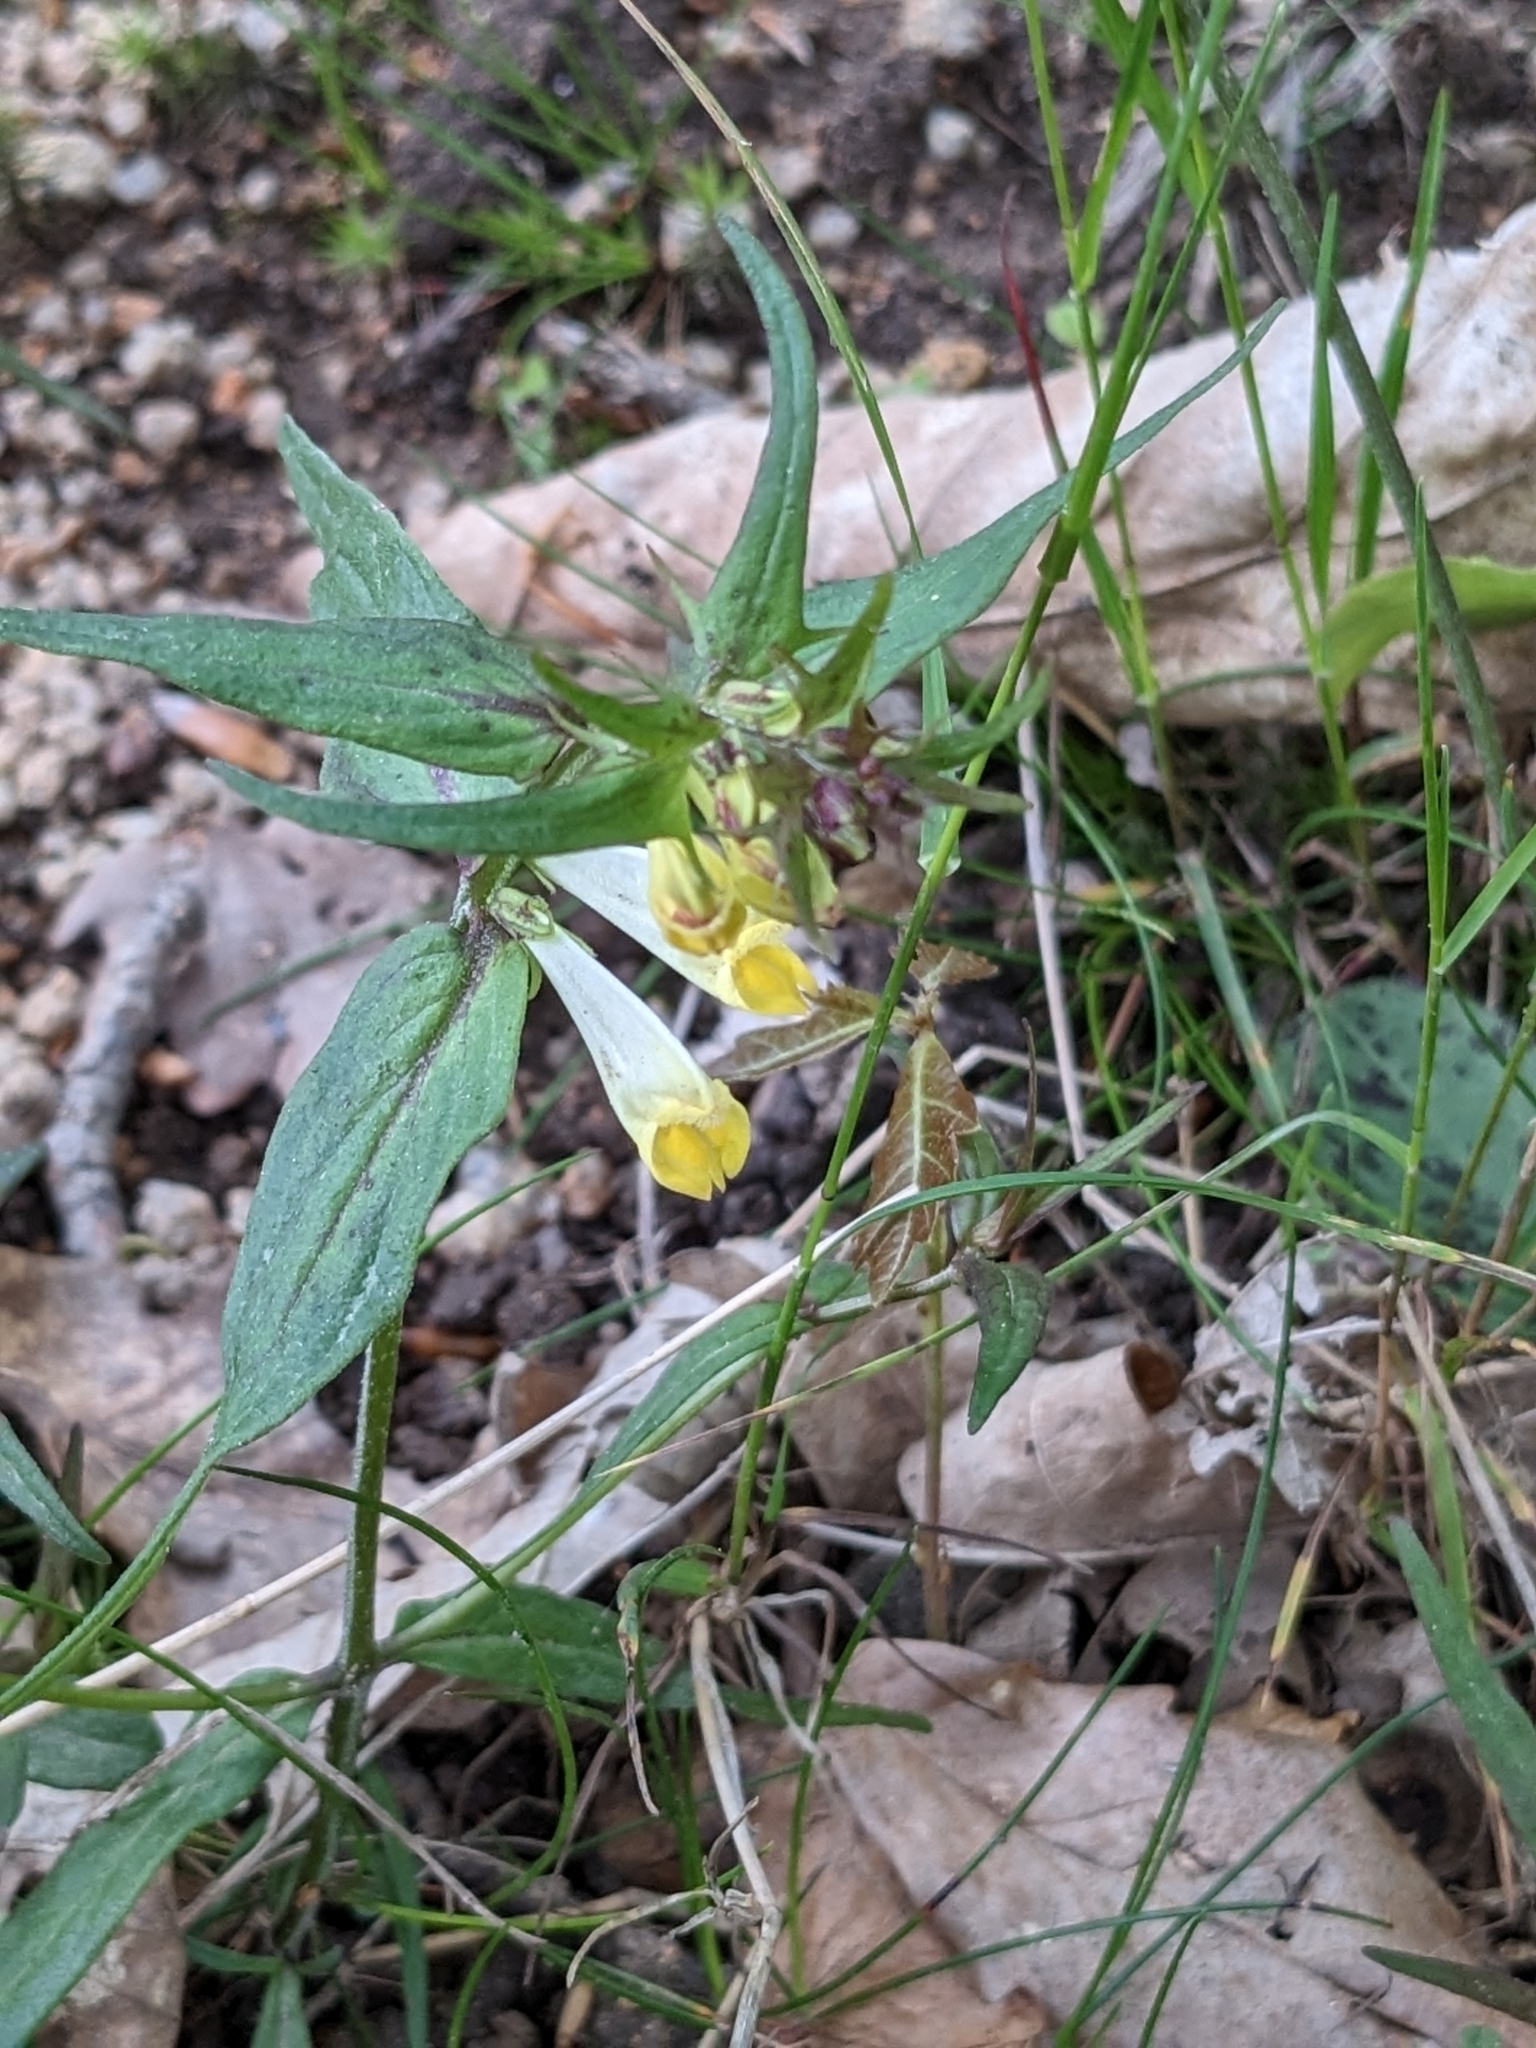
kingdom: Plantae
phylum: Tracheophyta
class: Magnoliopsida
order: Lamiales
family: Orobanchaceae
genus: Melampyrum
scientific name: Melampyrum pratense
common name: Common cow-wheat
